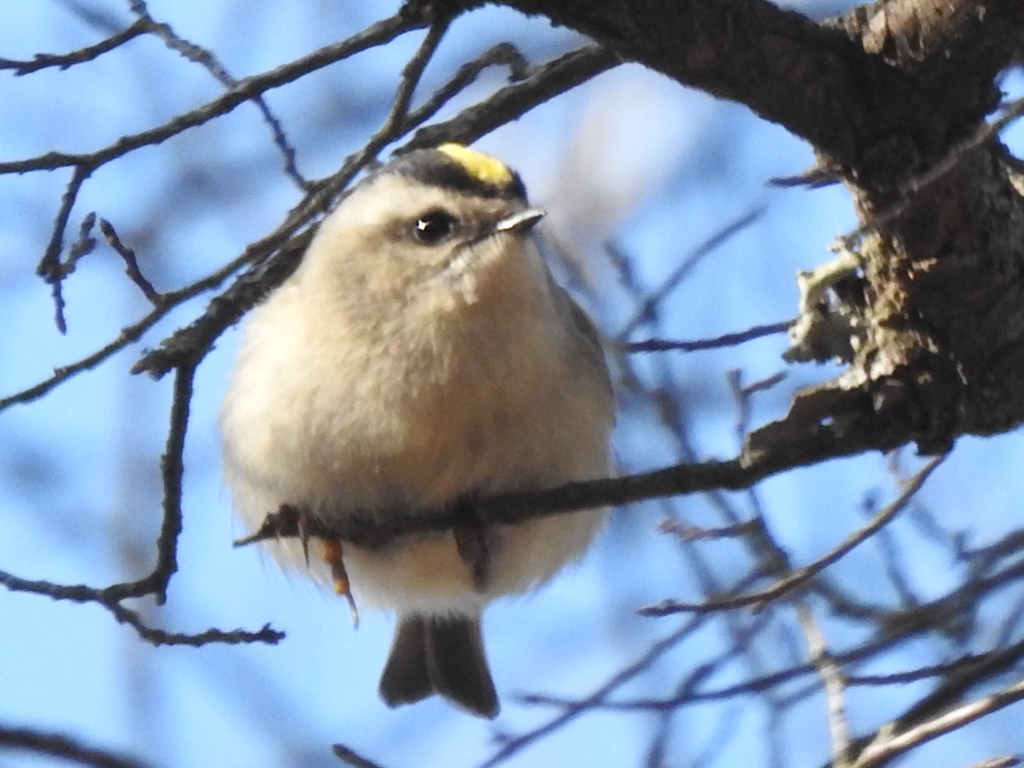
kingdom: Animalia
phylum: Chordata
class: Aves
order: Passeriformes
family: Regulidae
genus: Regulus
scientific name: Regulus satrapa
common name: Golden-crowned kinglet
